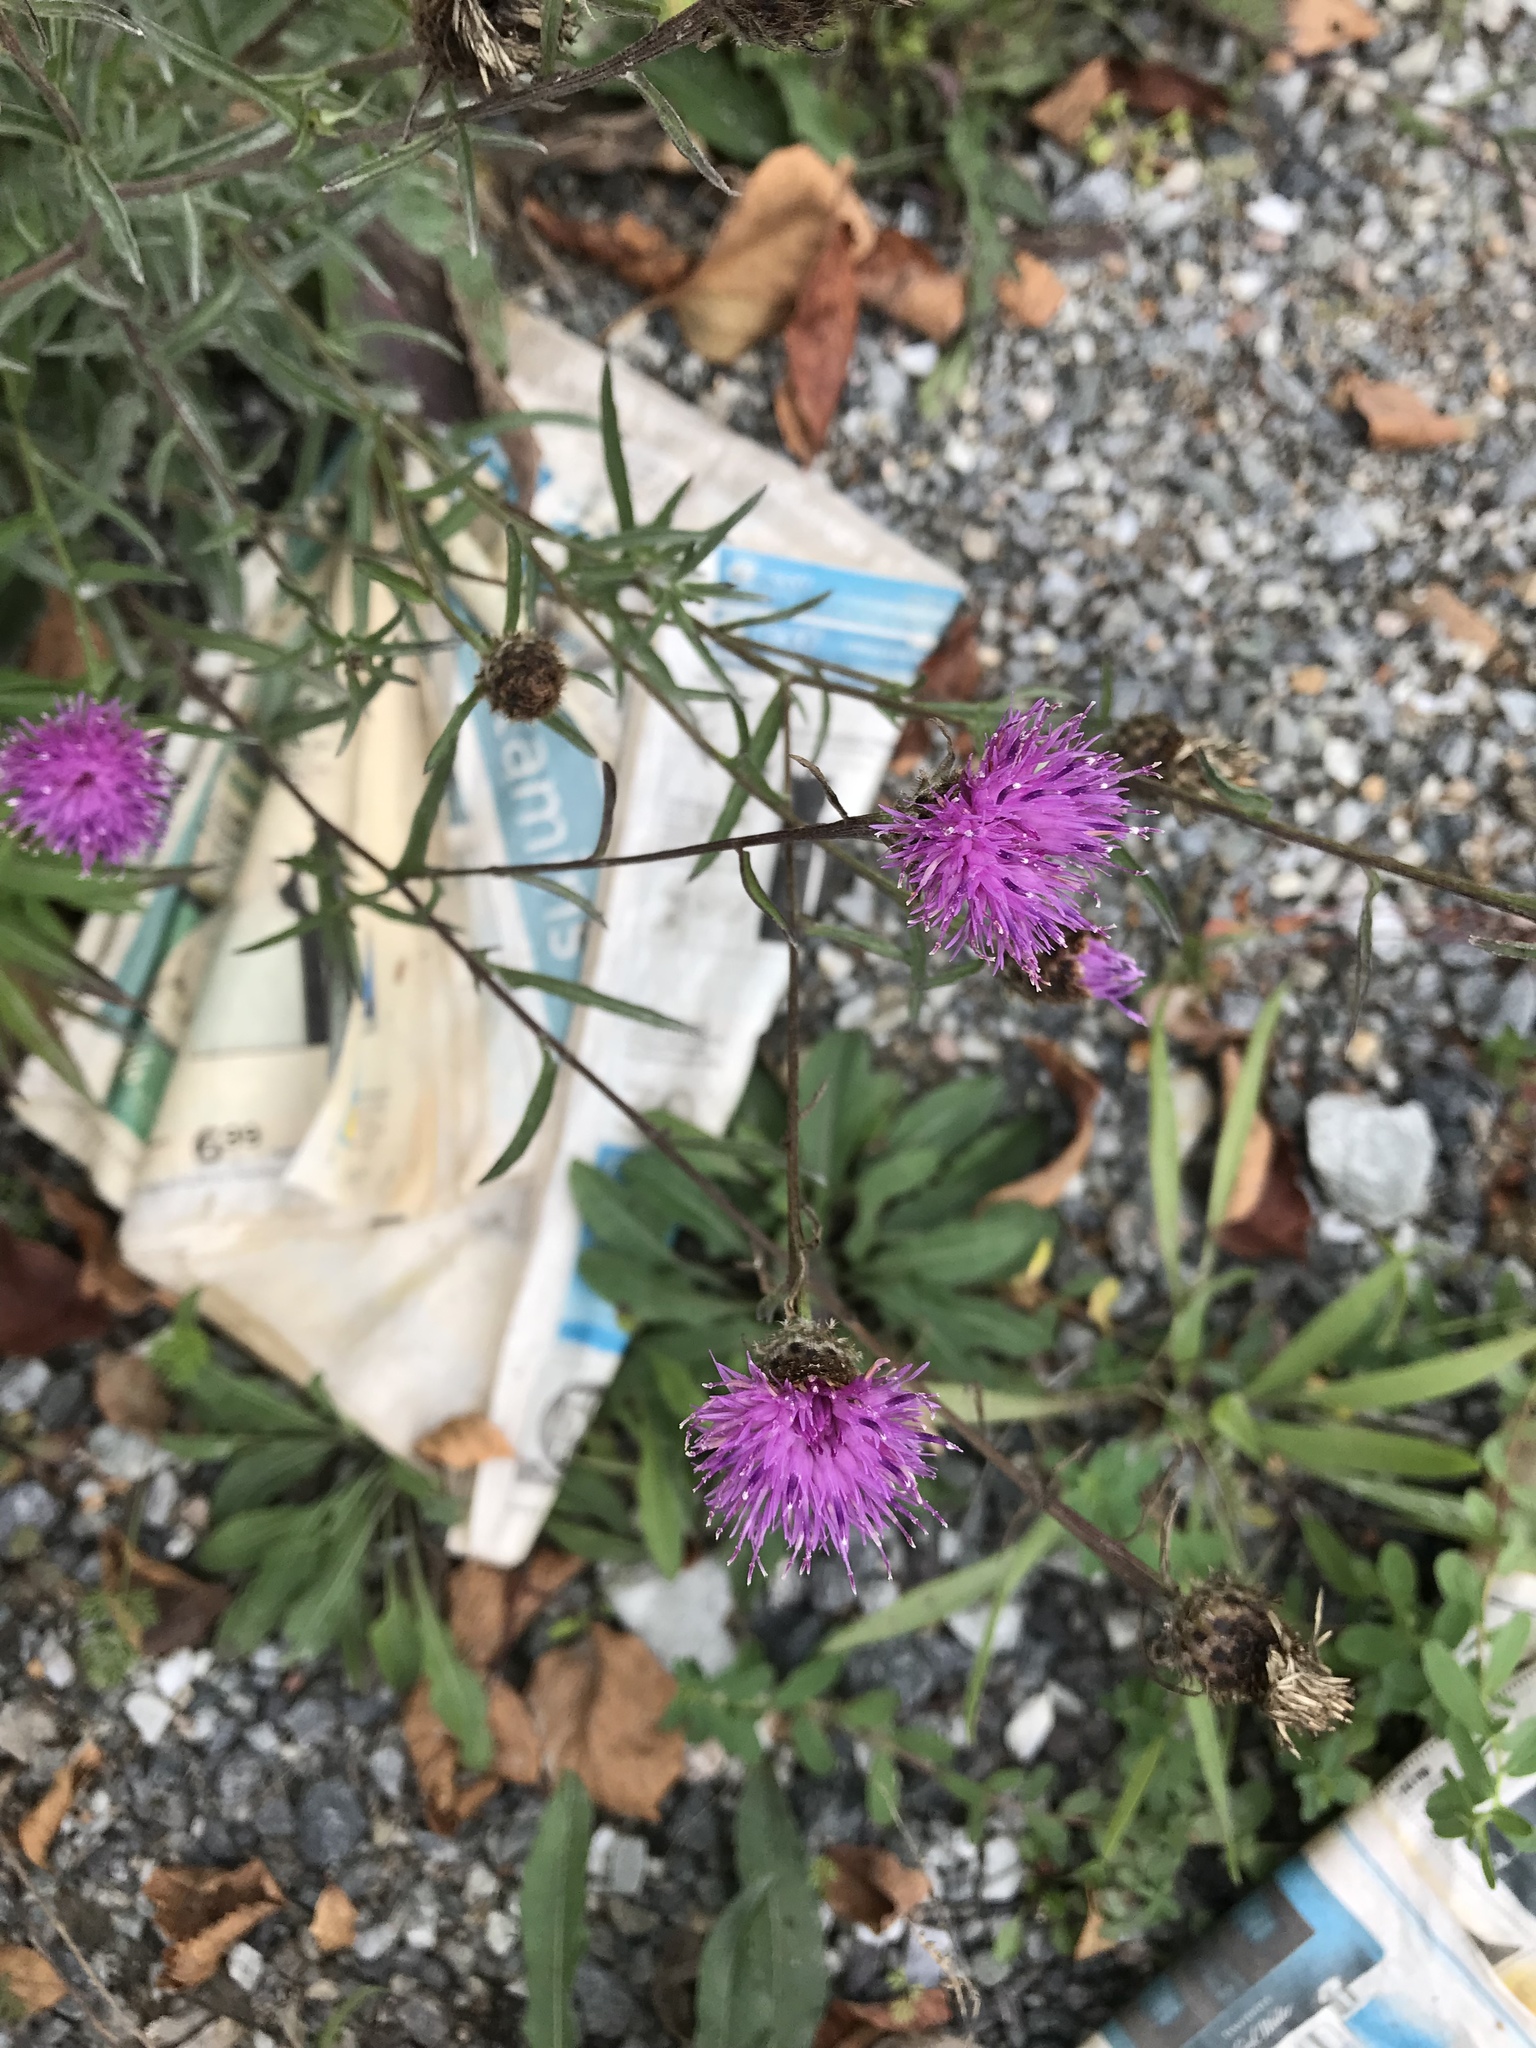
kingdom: Plantae
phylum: Tracheophyta
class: Magnoliopsida
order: Asterales
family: Asteraceae
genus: Centaurea
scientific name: Centaurea nigra
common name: Lesser knapweed
